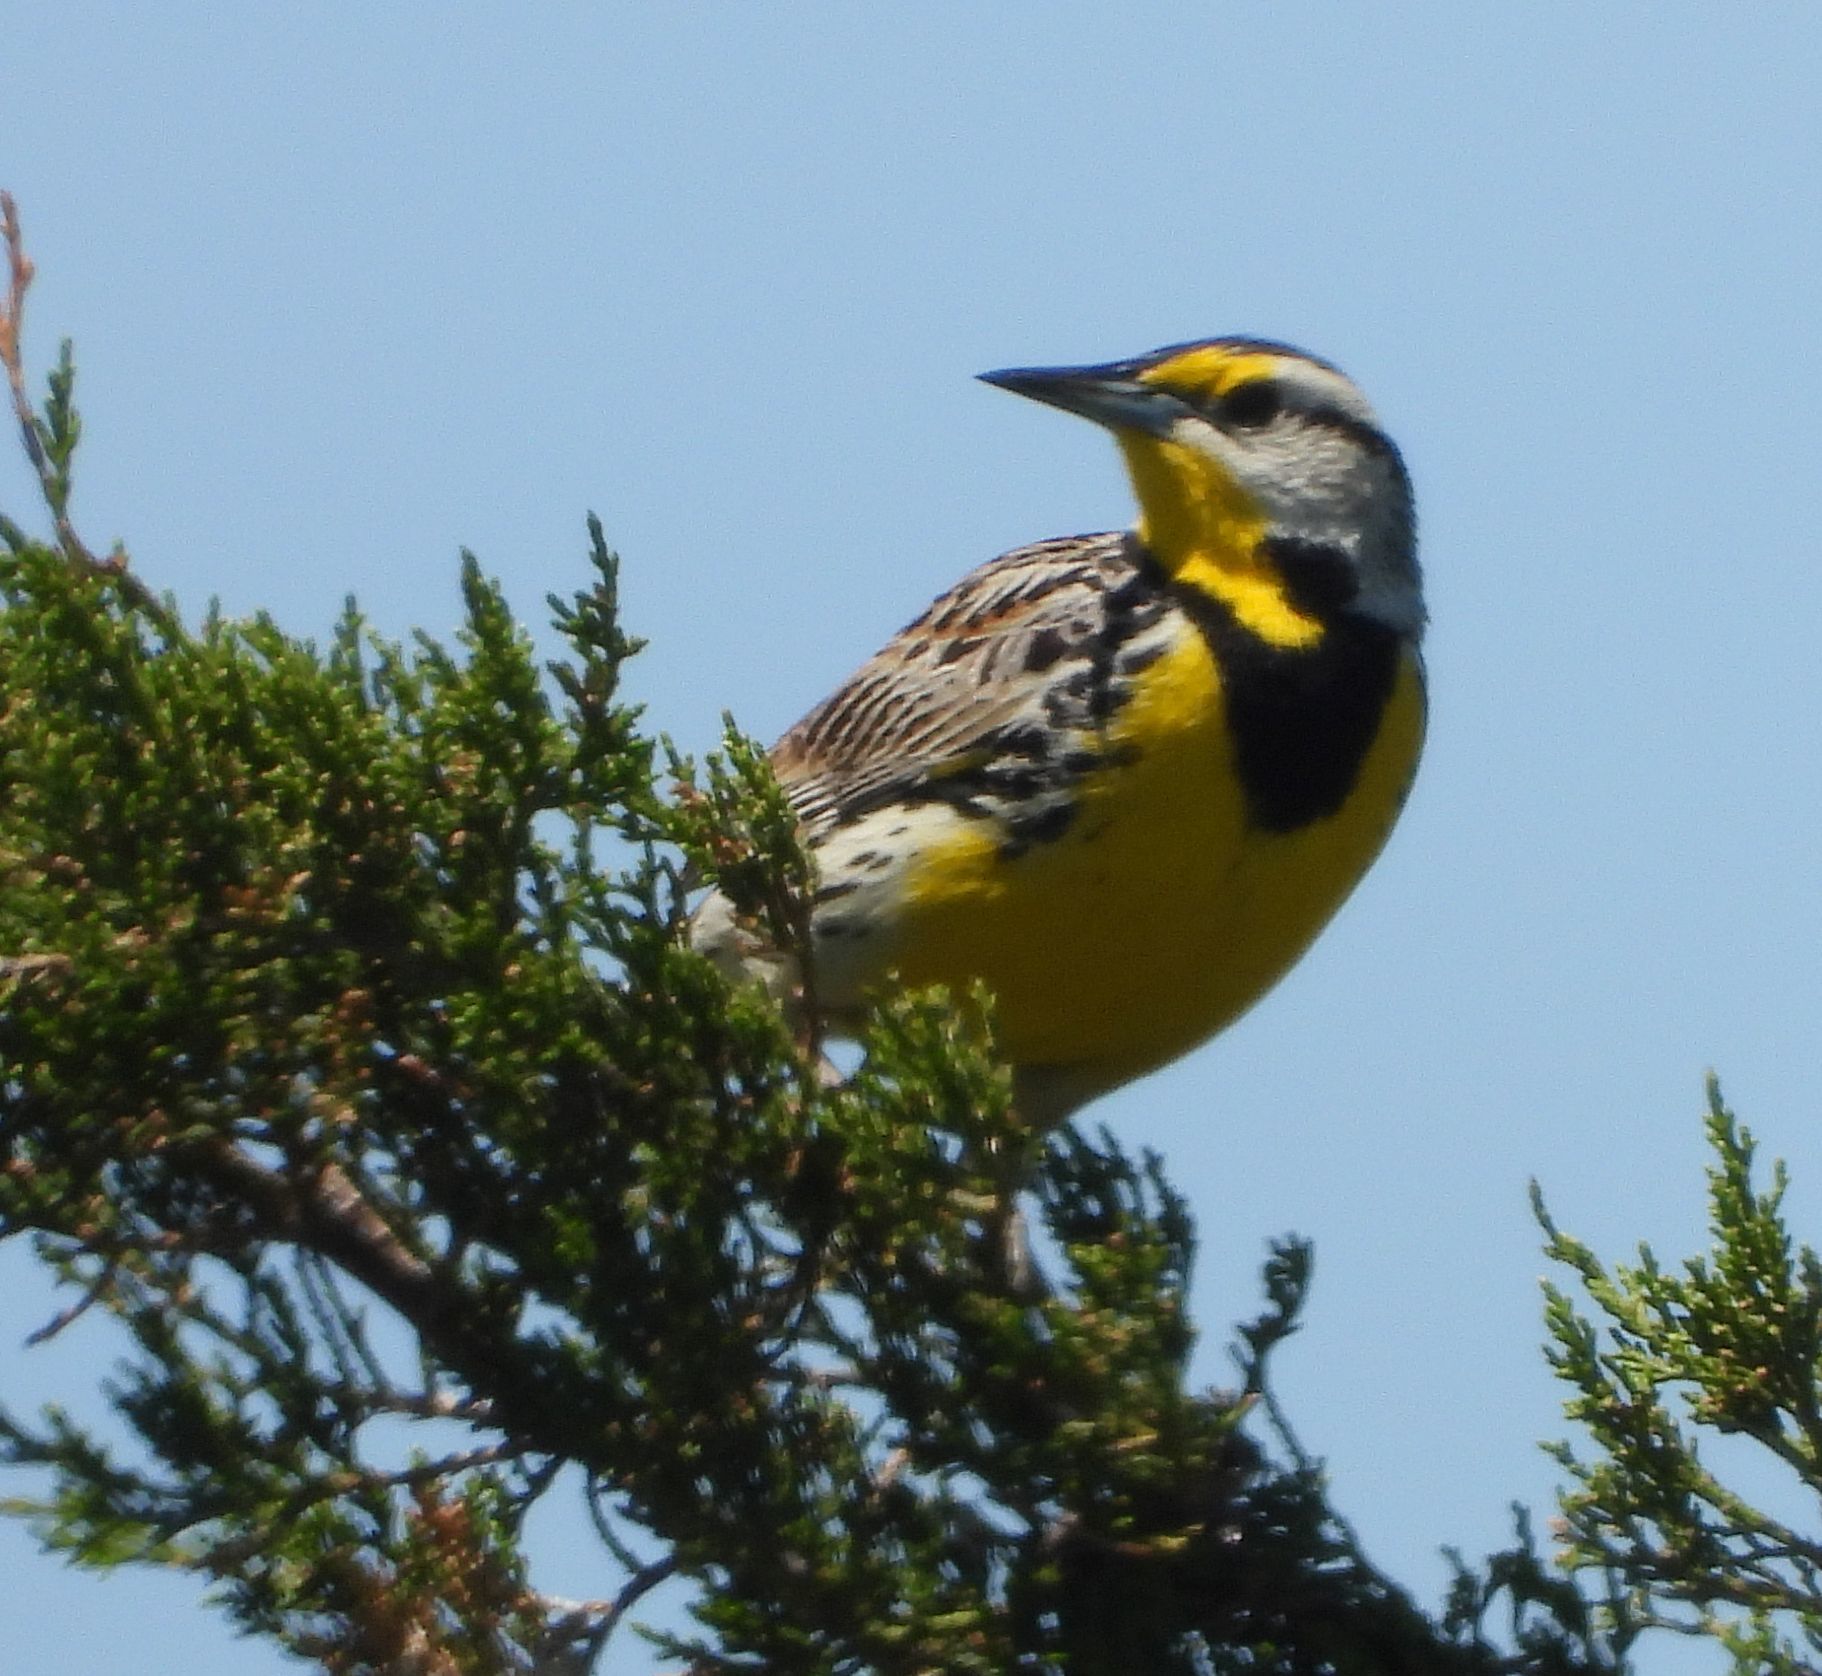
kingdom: Animalia
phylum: Chordata
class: Aves
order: Passeriformes
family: Icteridae
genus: Sturnella
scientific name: Sturnella magna
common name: Eastern meadowlark
